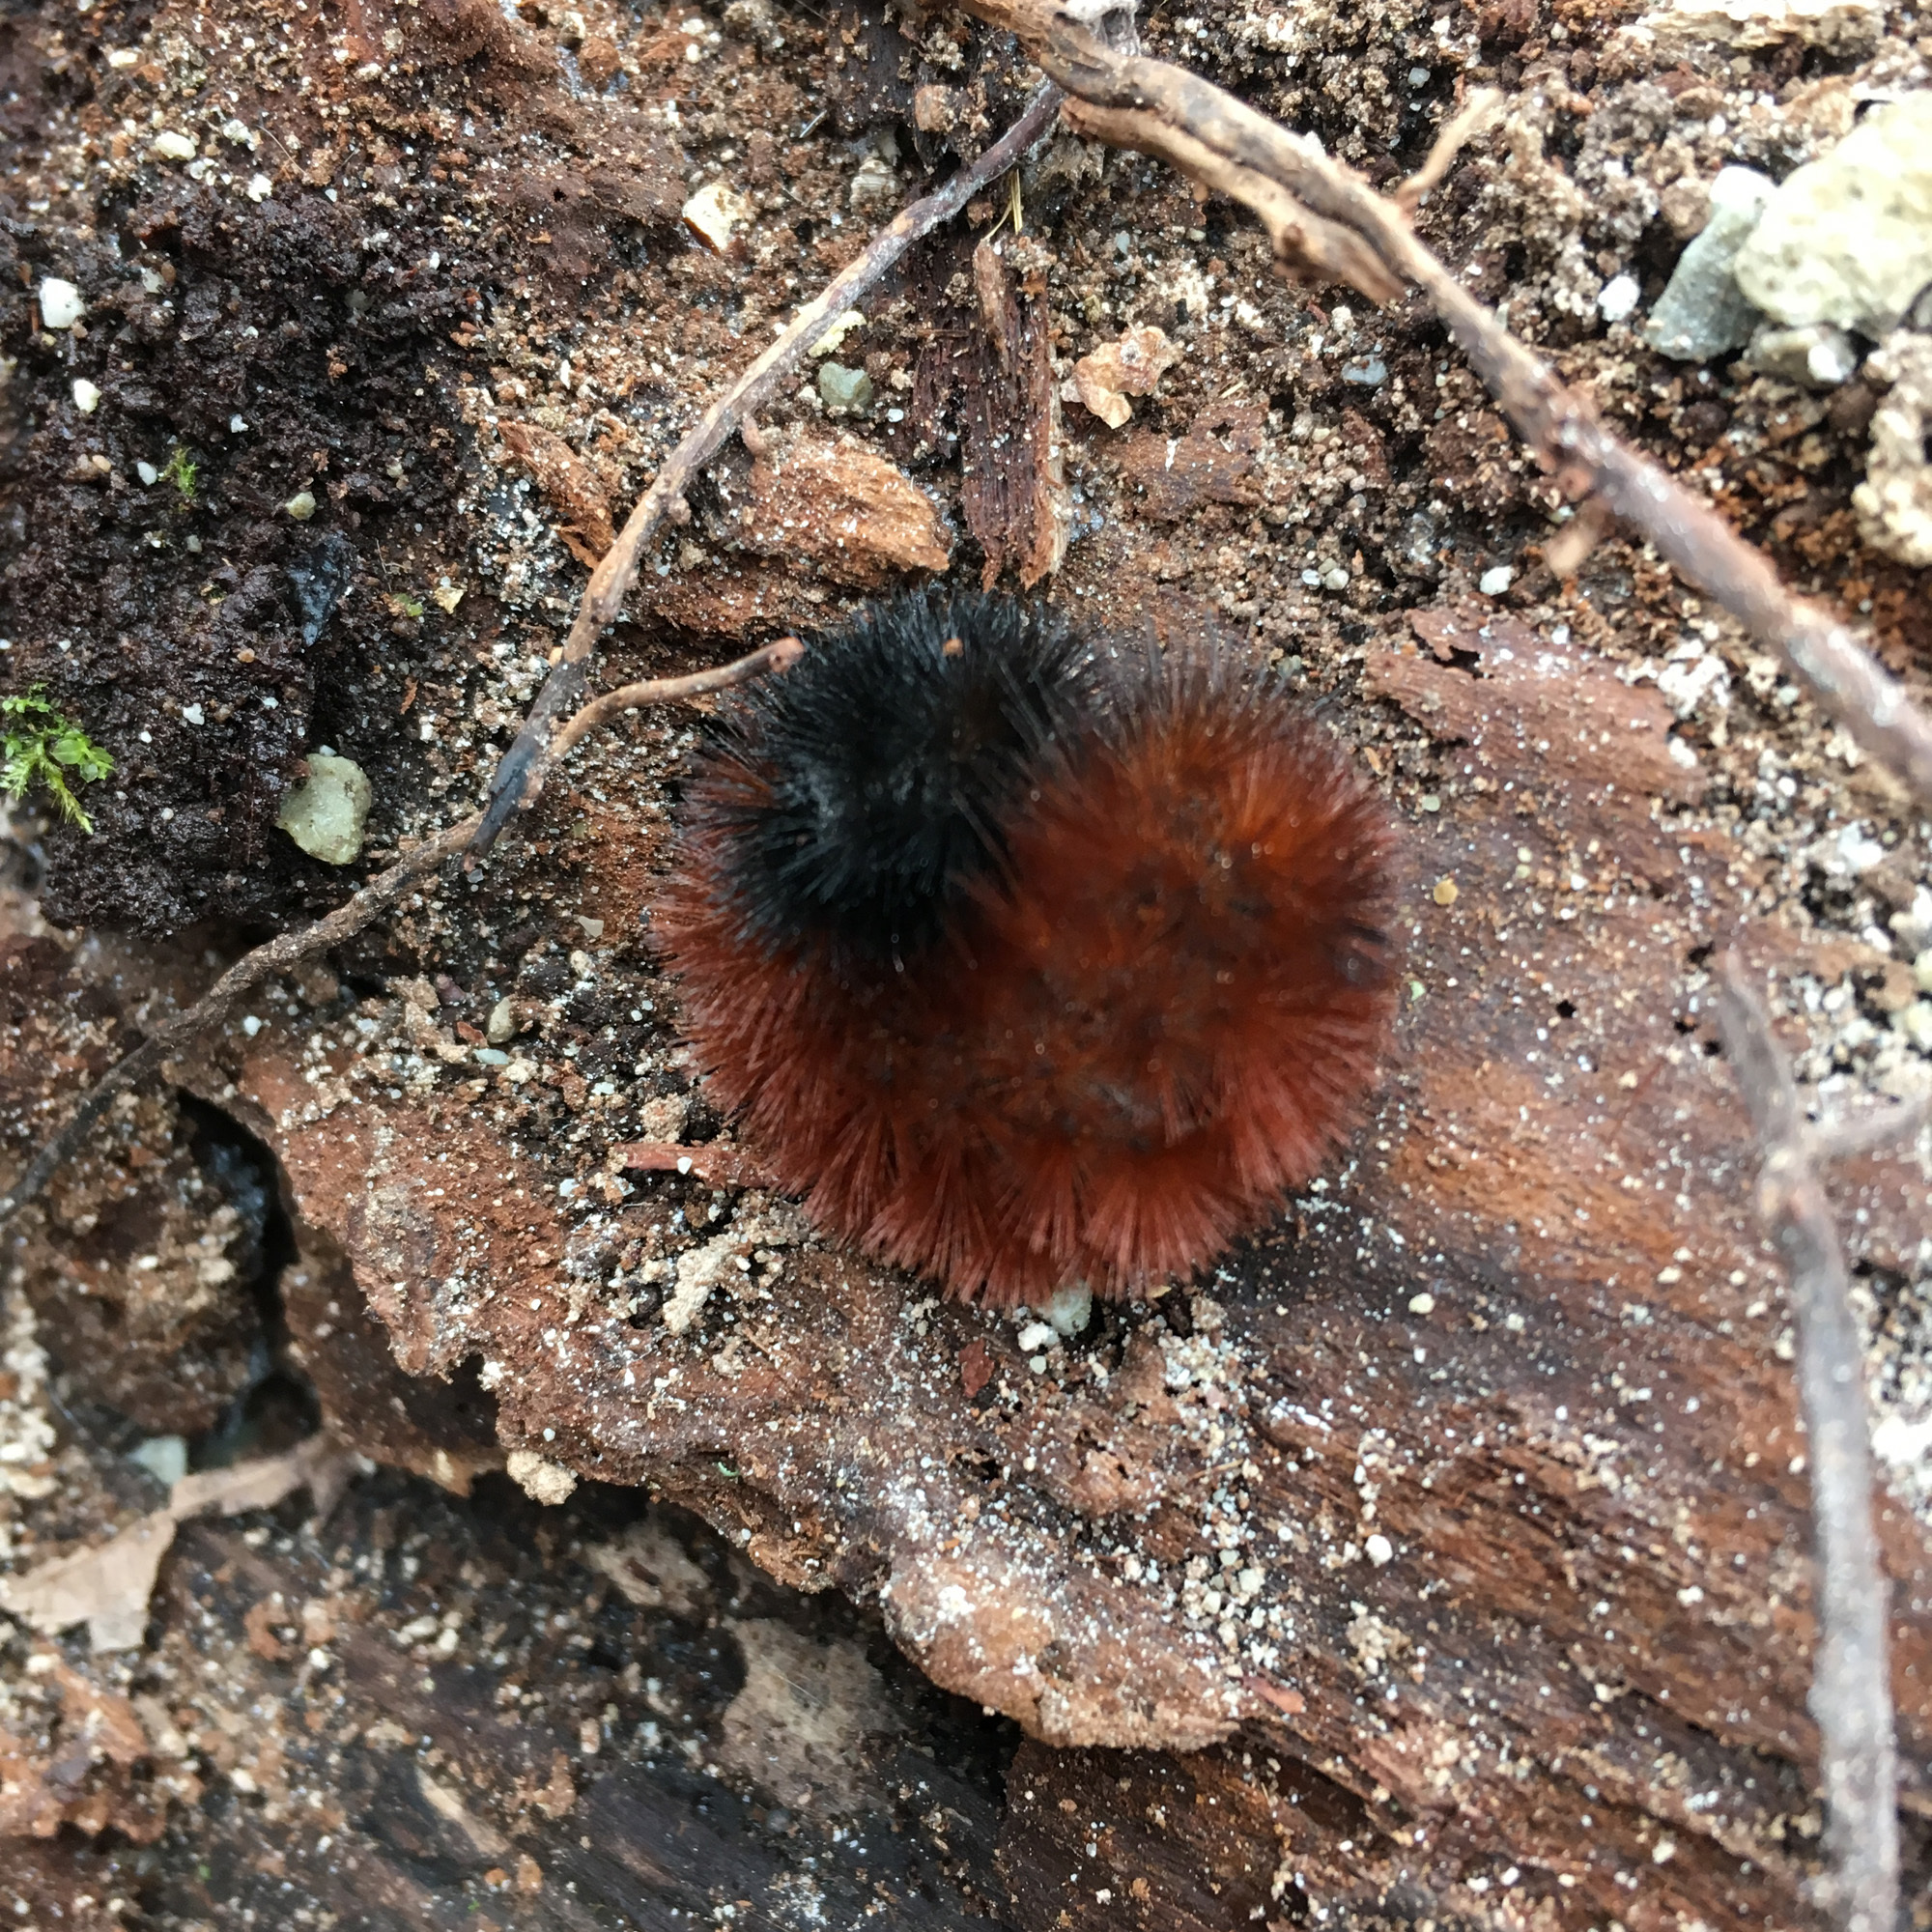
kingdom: Animalia
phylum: Arthropoda
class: Insecta
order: Lepidoptera
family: Erebidae
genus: Pyrrharctia
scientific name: Pyrrharctia isabella
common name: Isabella tiger moth
